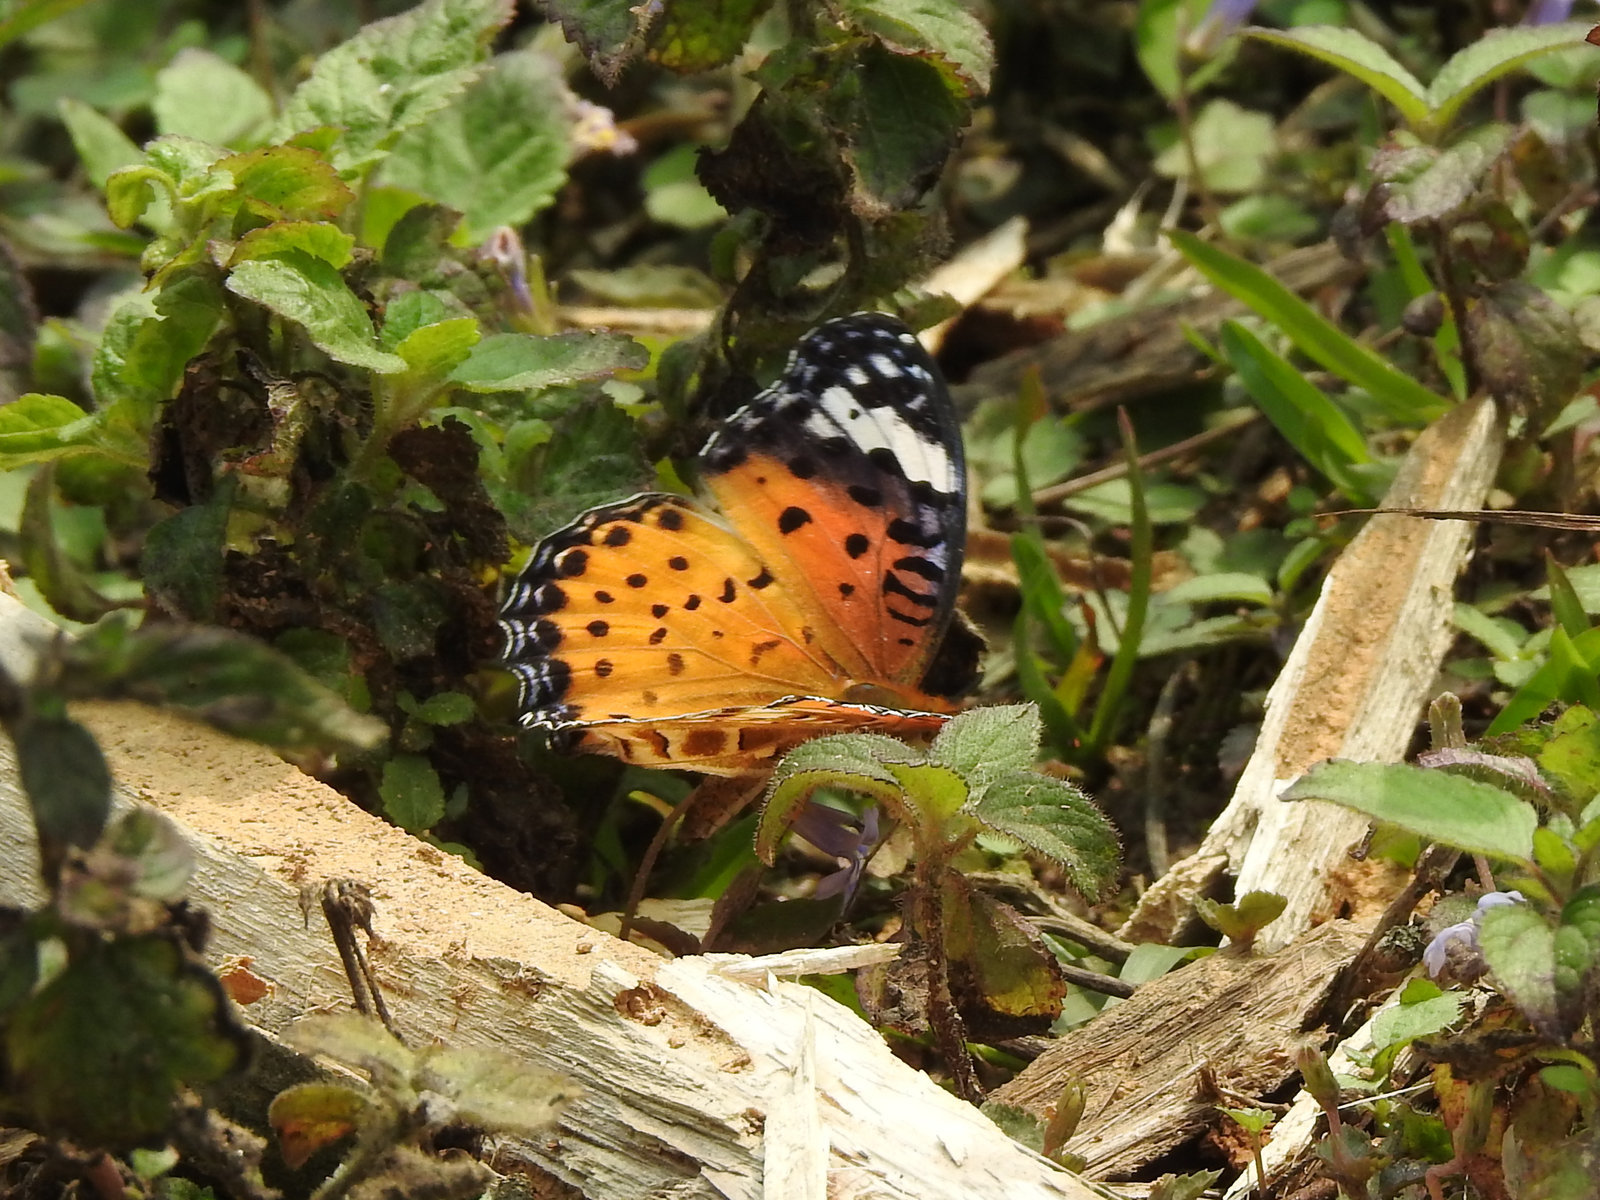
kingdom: Animalia
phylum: Arthropoda
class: Insecta
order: Lepidoptera
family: Nymphalidae
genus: Argynnis
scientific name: Argynnis hyperbius
